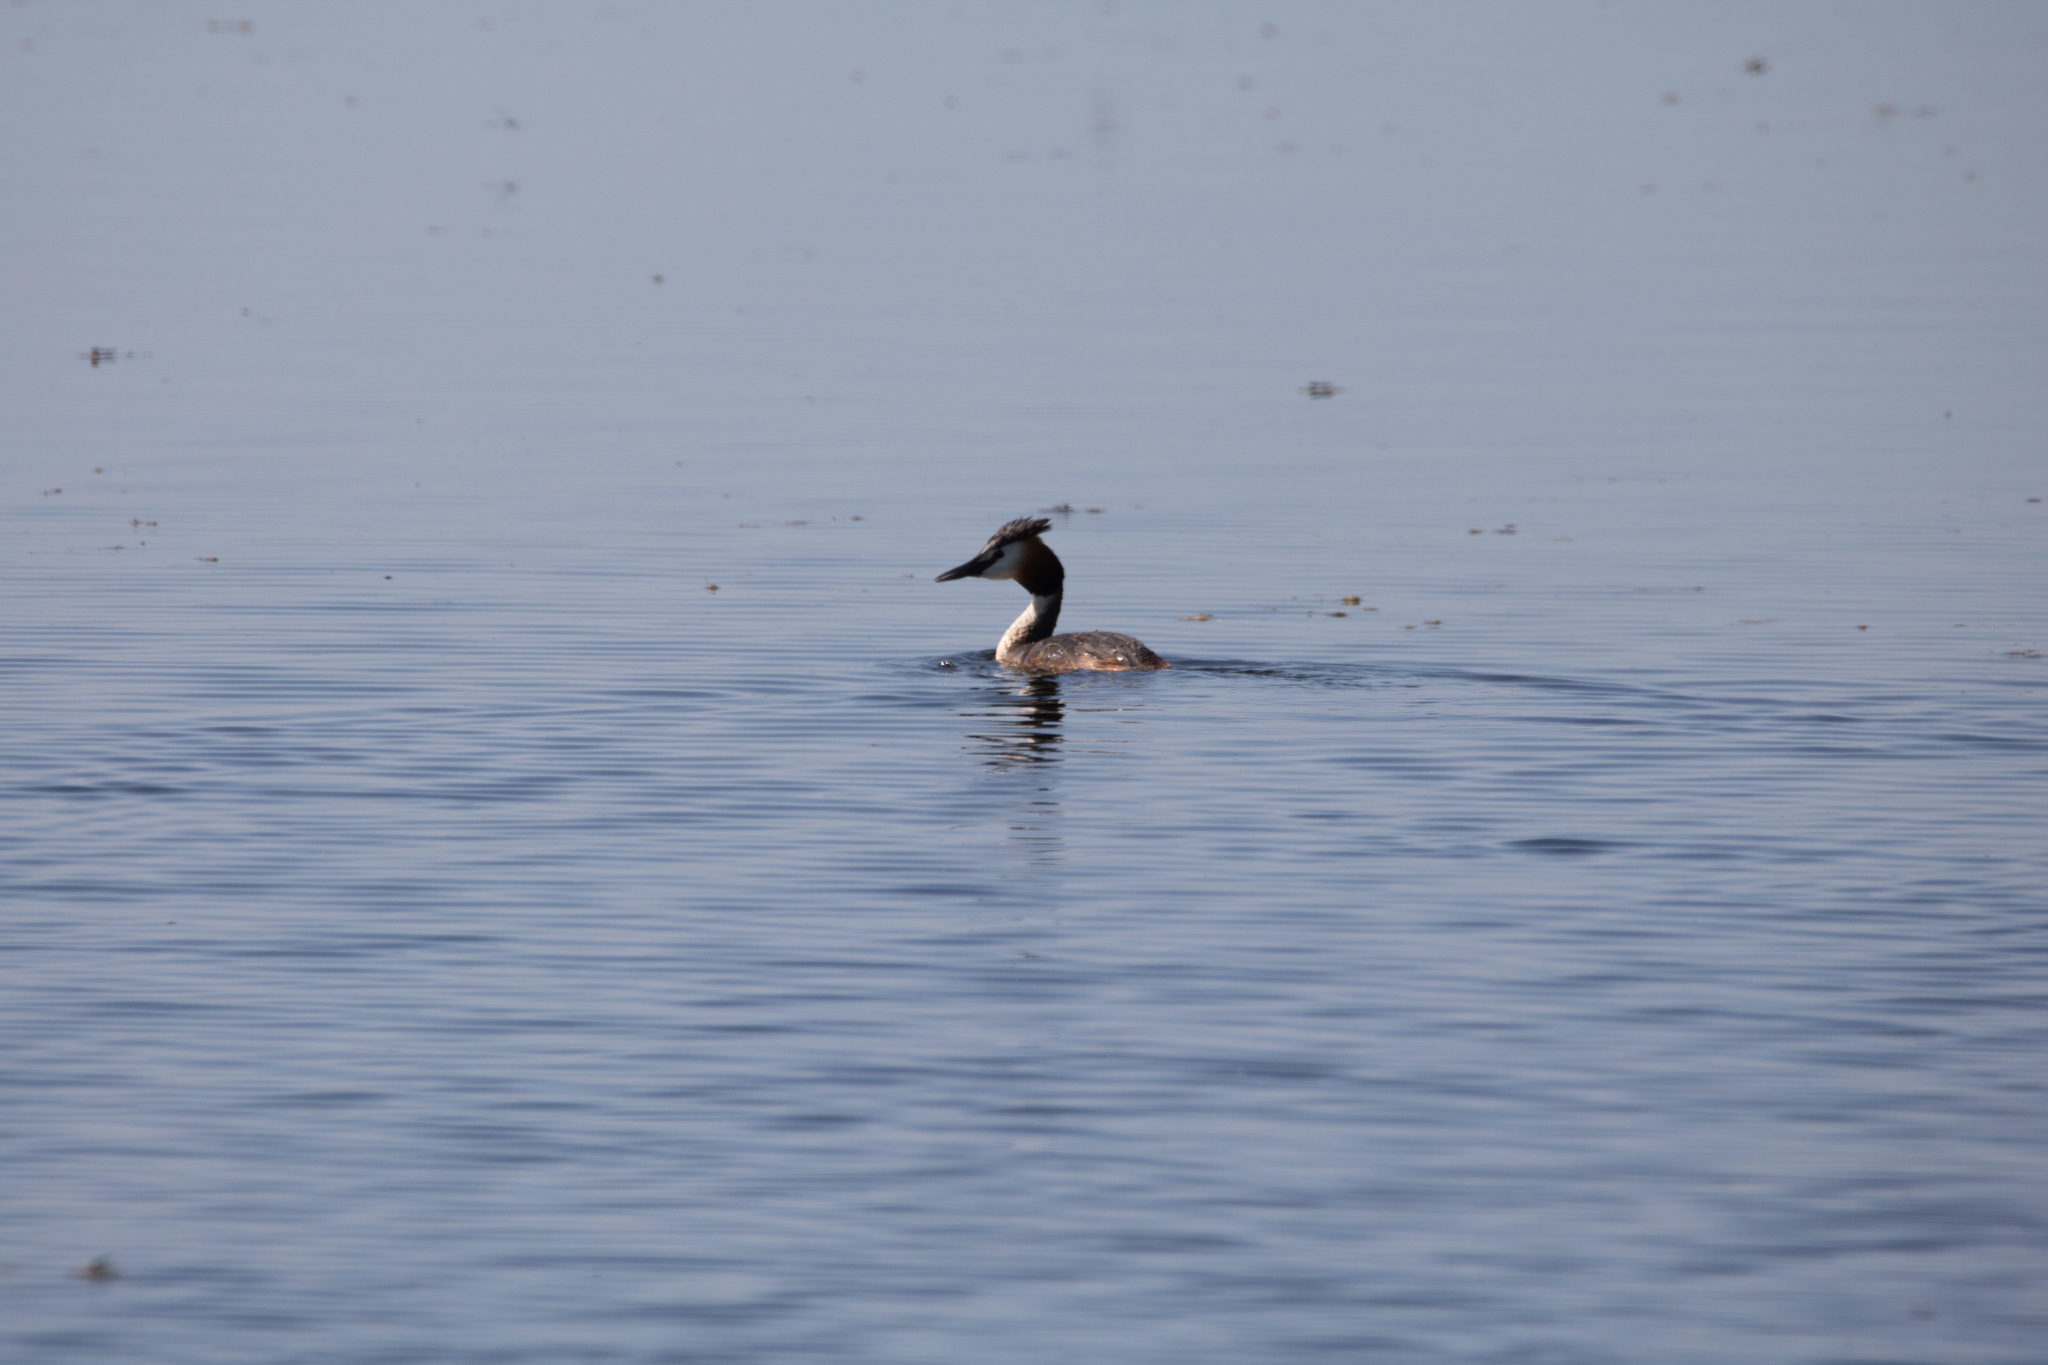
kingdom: Animalia
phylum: Chordata
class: Aves
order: Podicipediformes
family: Podicipedidae
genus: Podiceps
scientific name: Podiceps cristatus
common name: Great crested grebe
